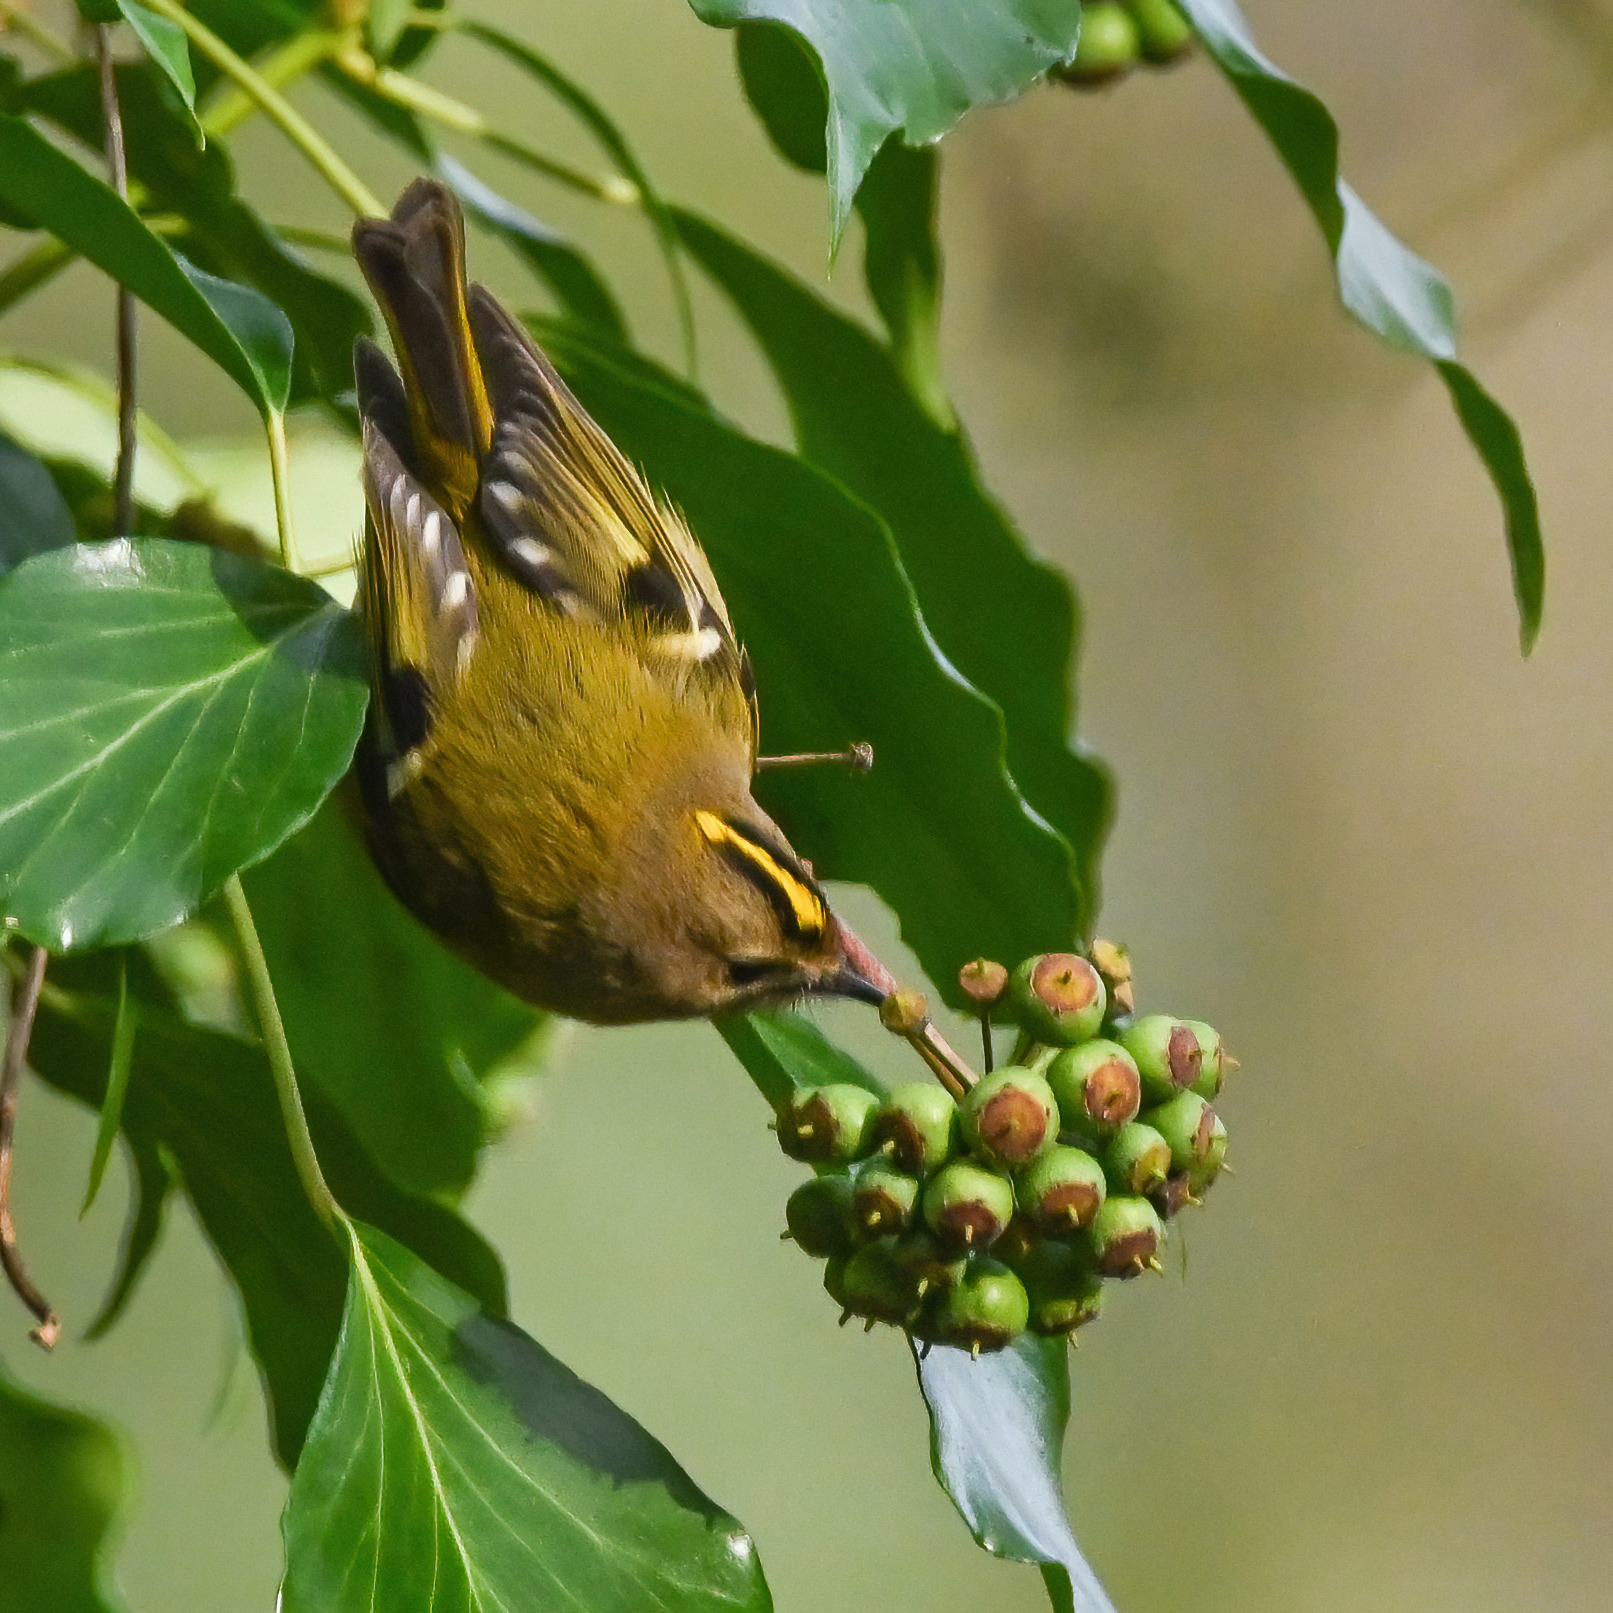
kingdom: Animalia
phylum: Chordata
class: Aves
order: Passeriformes
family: Regulidae
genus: Regulus
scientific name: Regulus regulus
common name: Goldcrest
